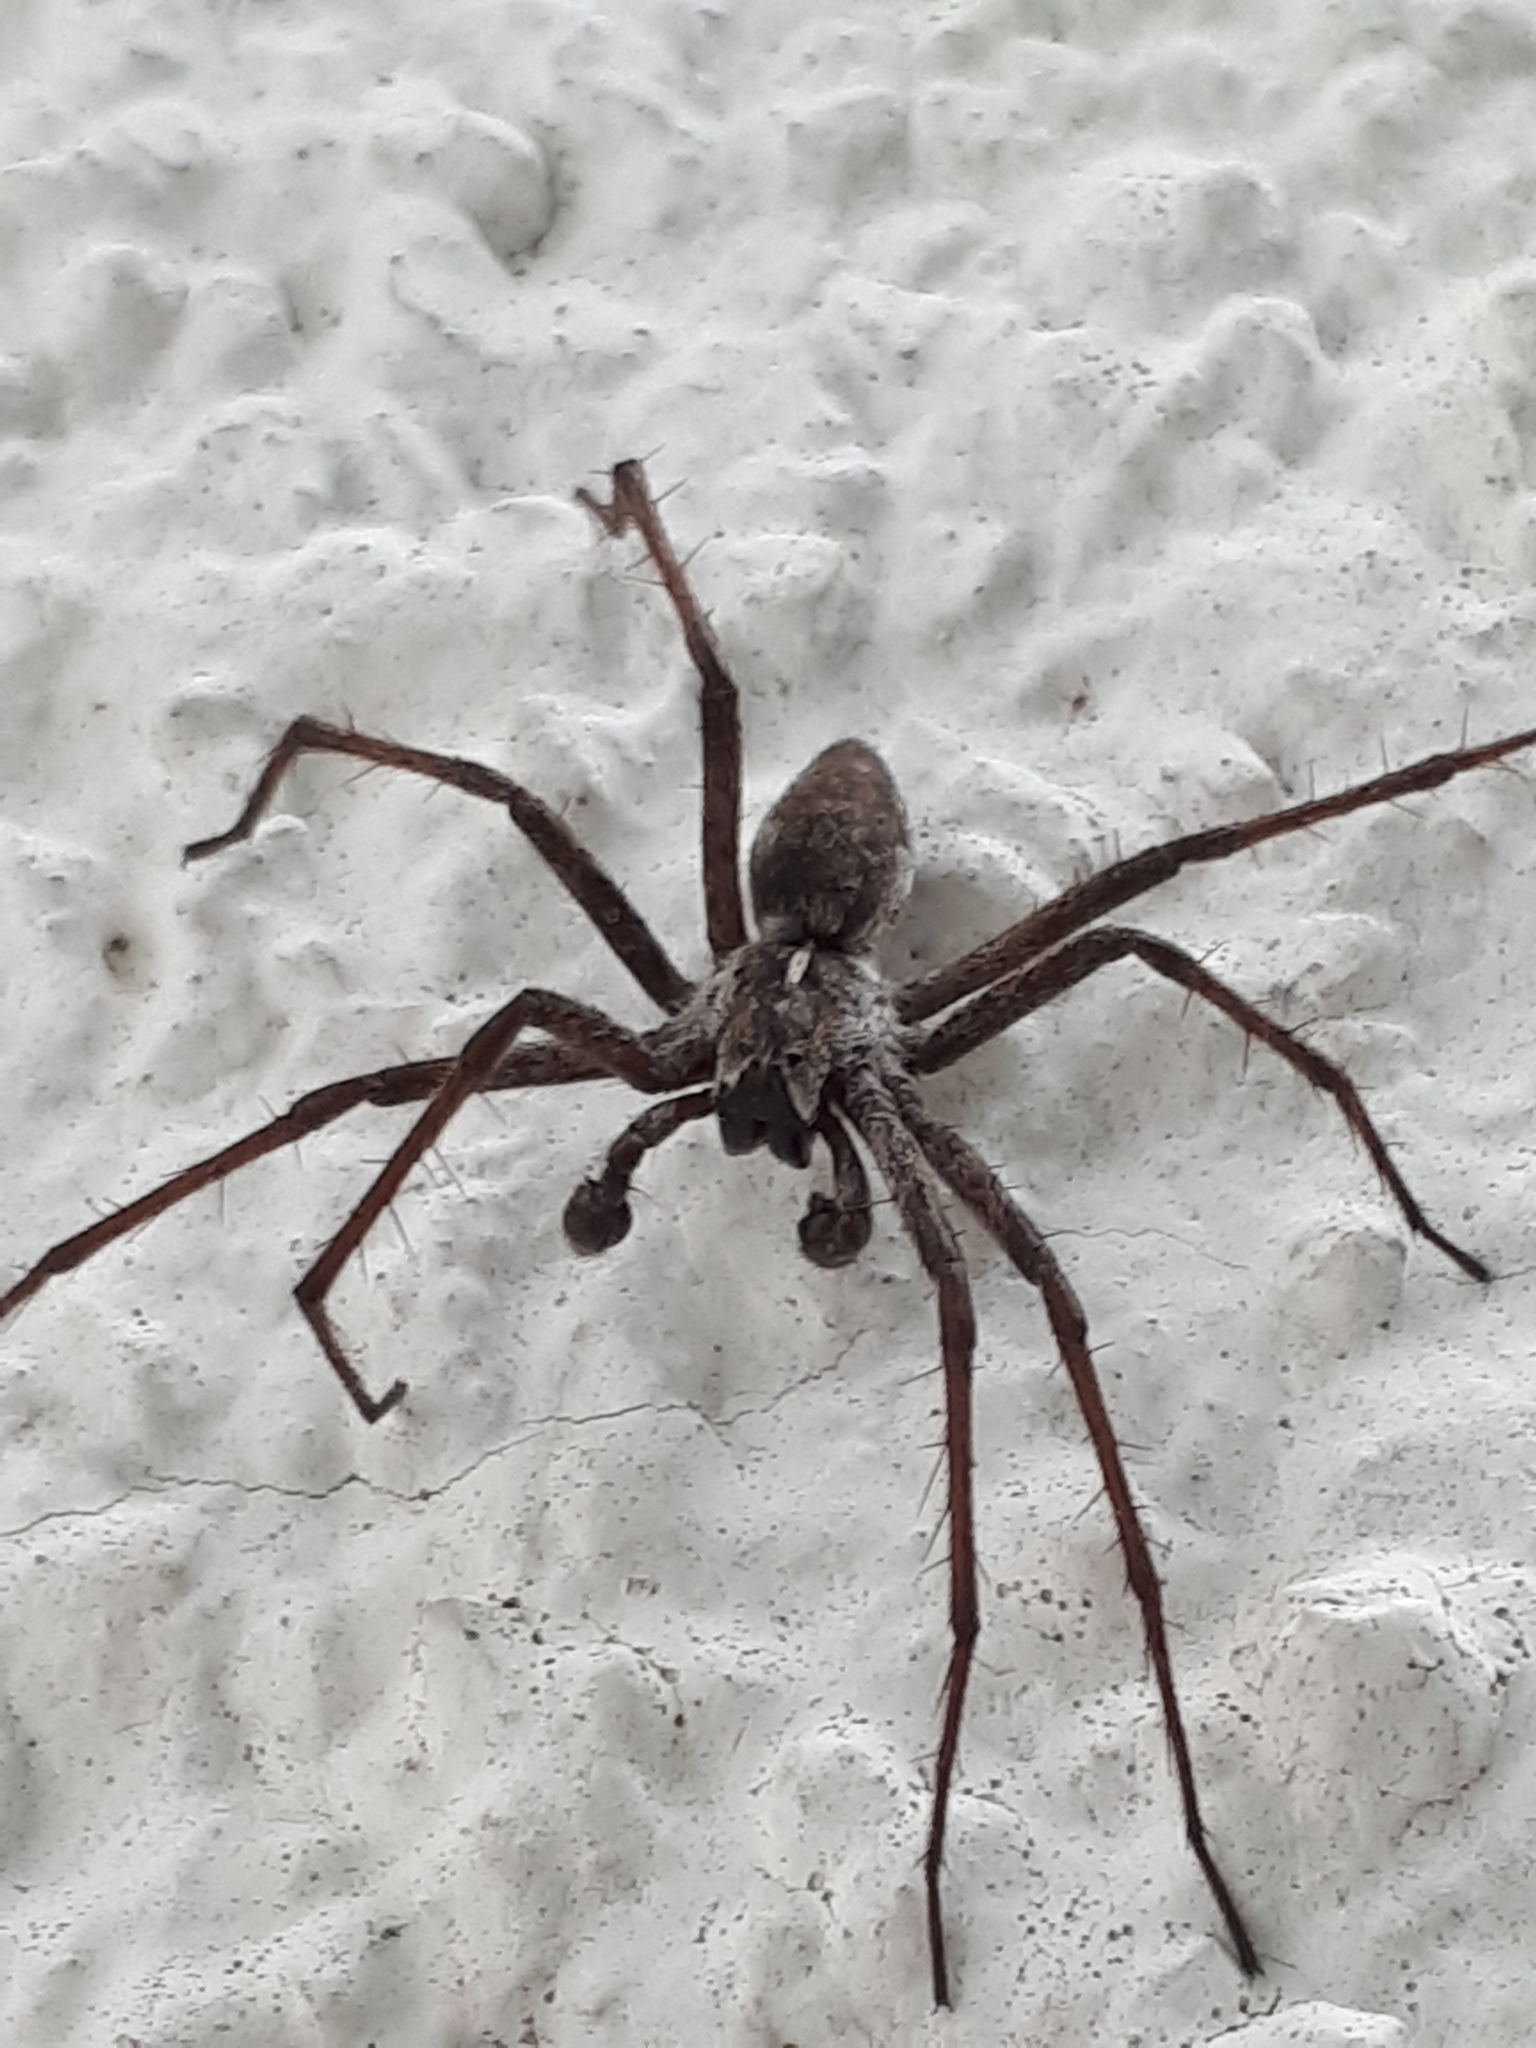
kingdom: Animalia
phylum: Arthropoda
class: Arachnida
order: Araneae
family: Pisauridae
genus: Pisaura
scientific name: Pisaura mirabilis
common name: Tent spider
